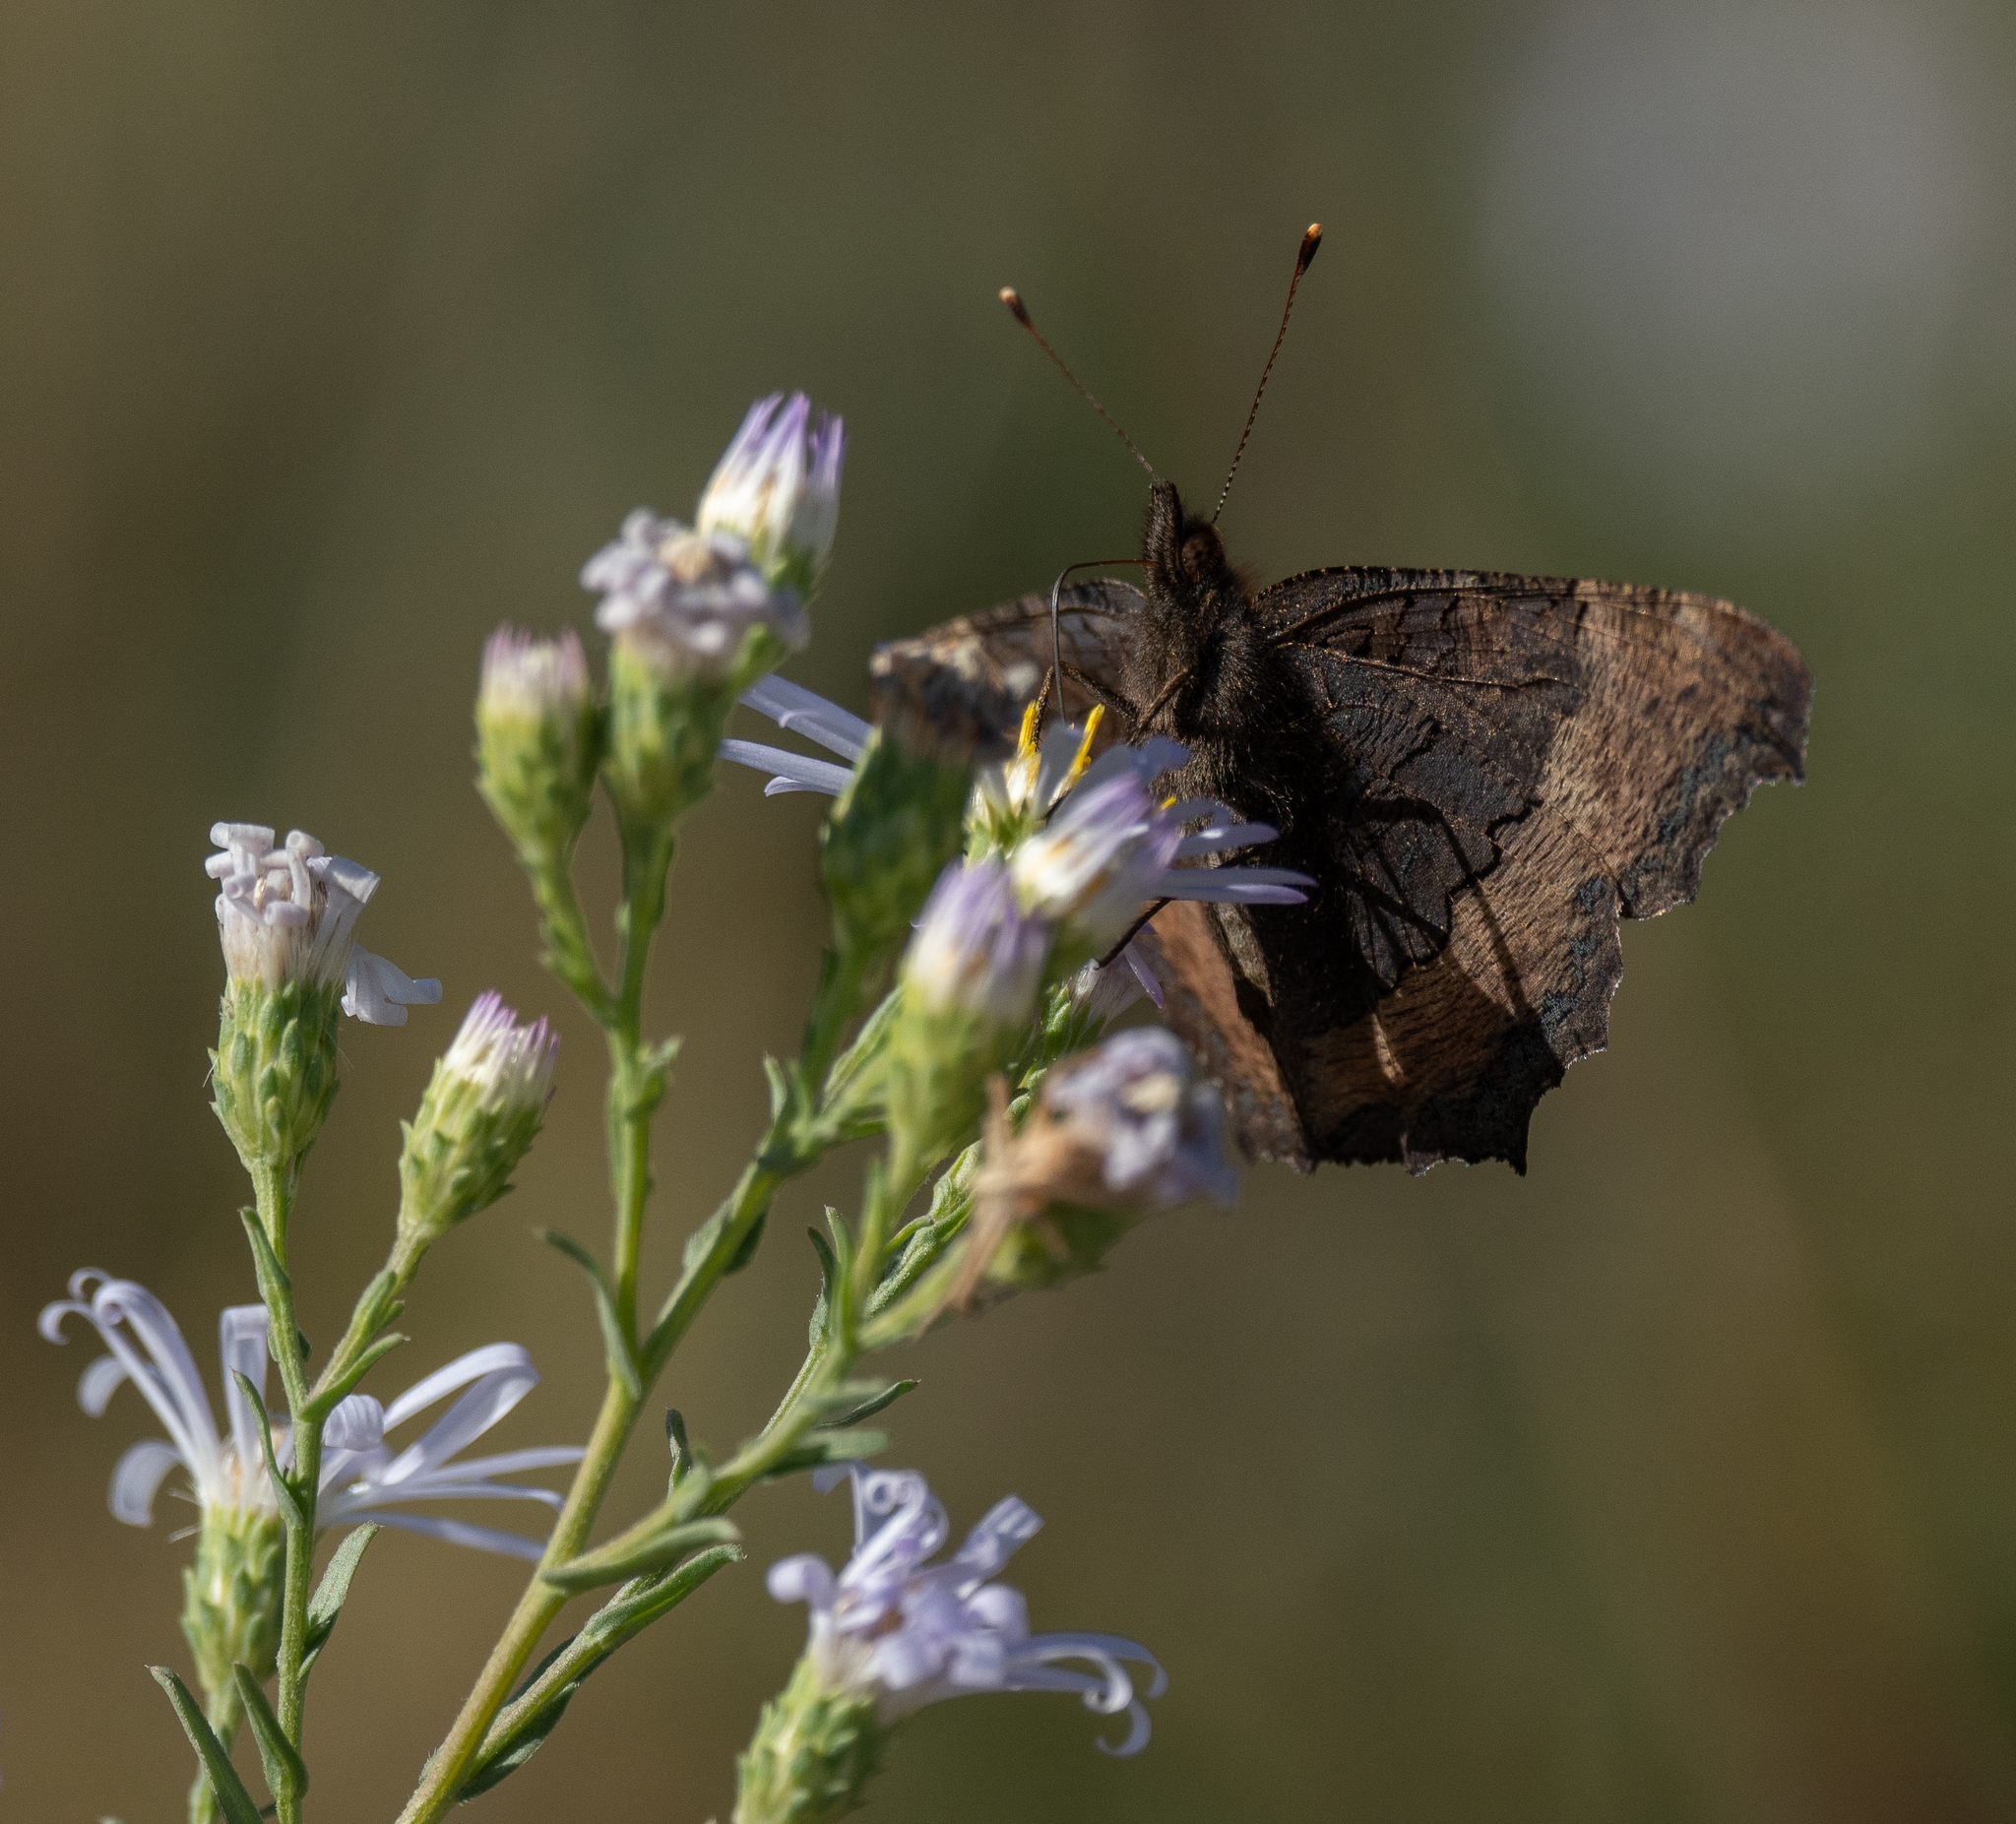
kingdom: Animalia
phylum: Arthropoda
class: Insecta
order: Lepidoptera
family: Nymphalidae
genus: Aglais
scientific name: Aglais milberti
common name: Milbert's tortoiseshell
